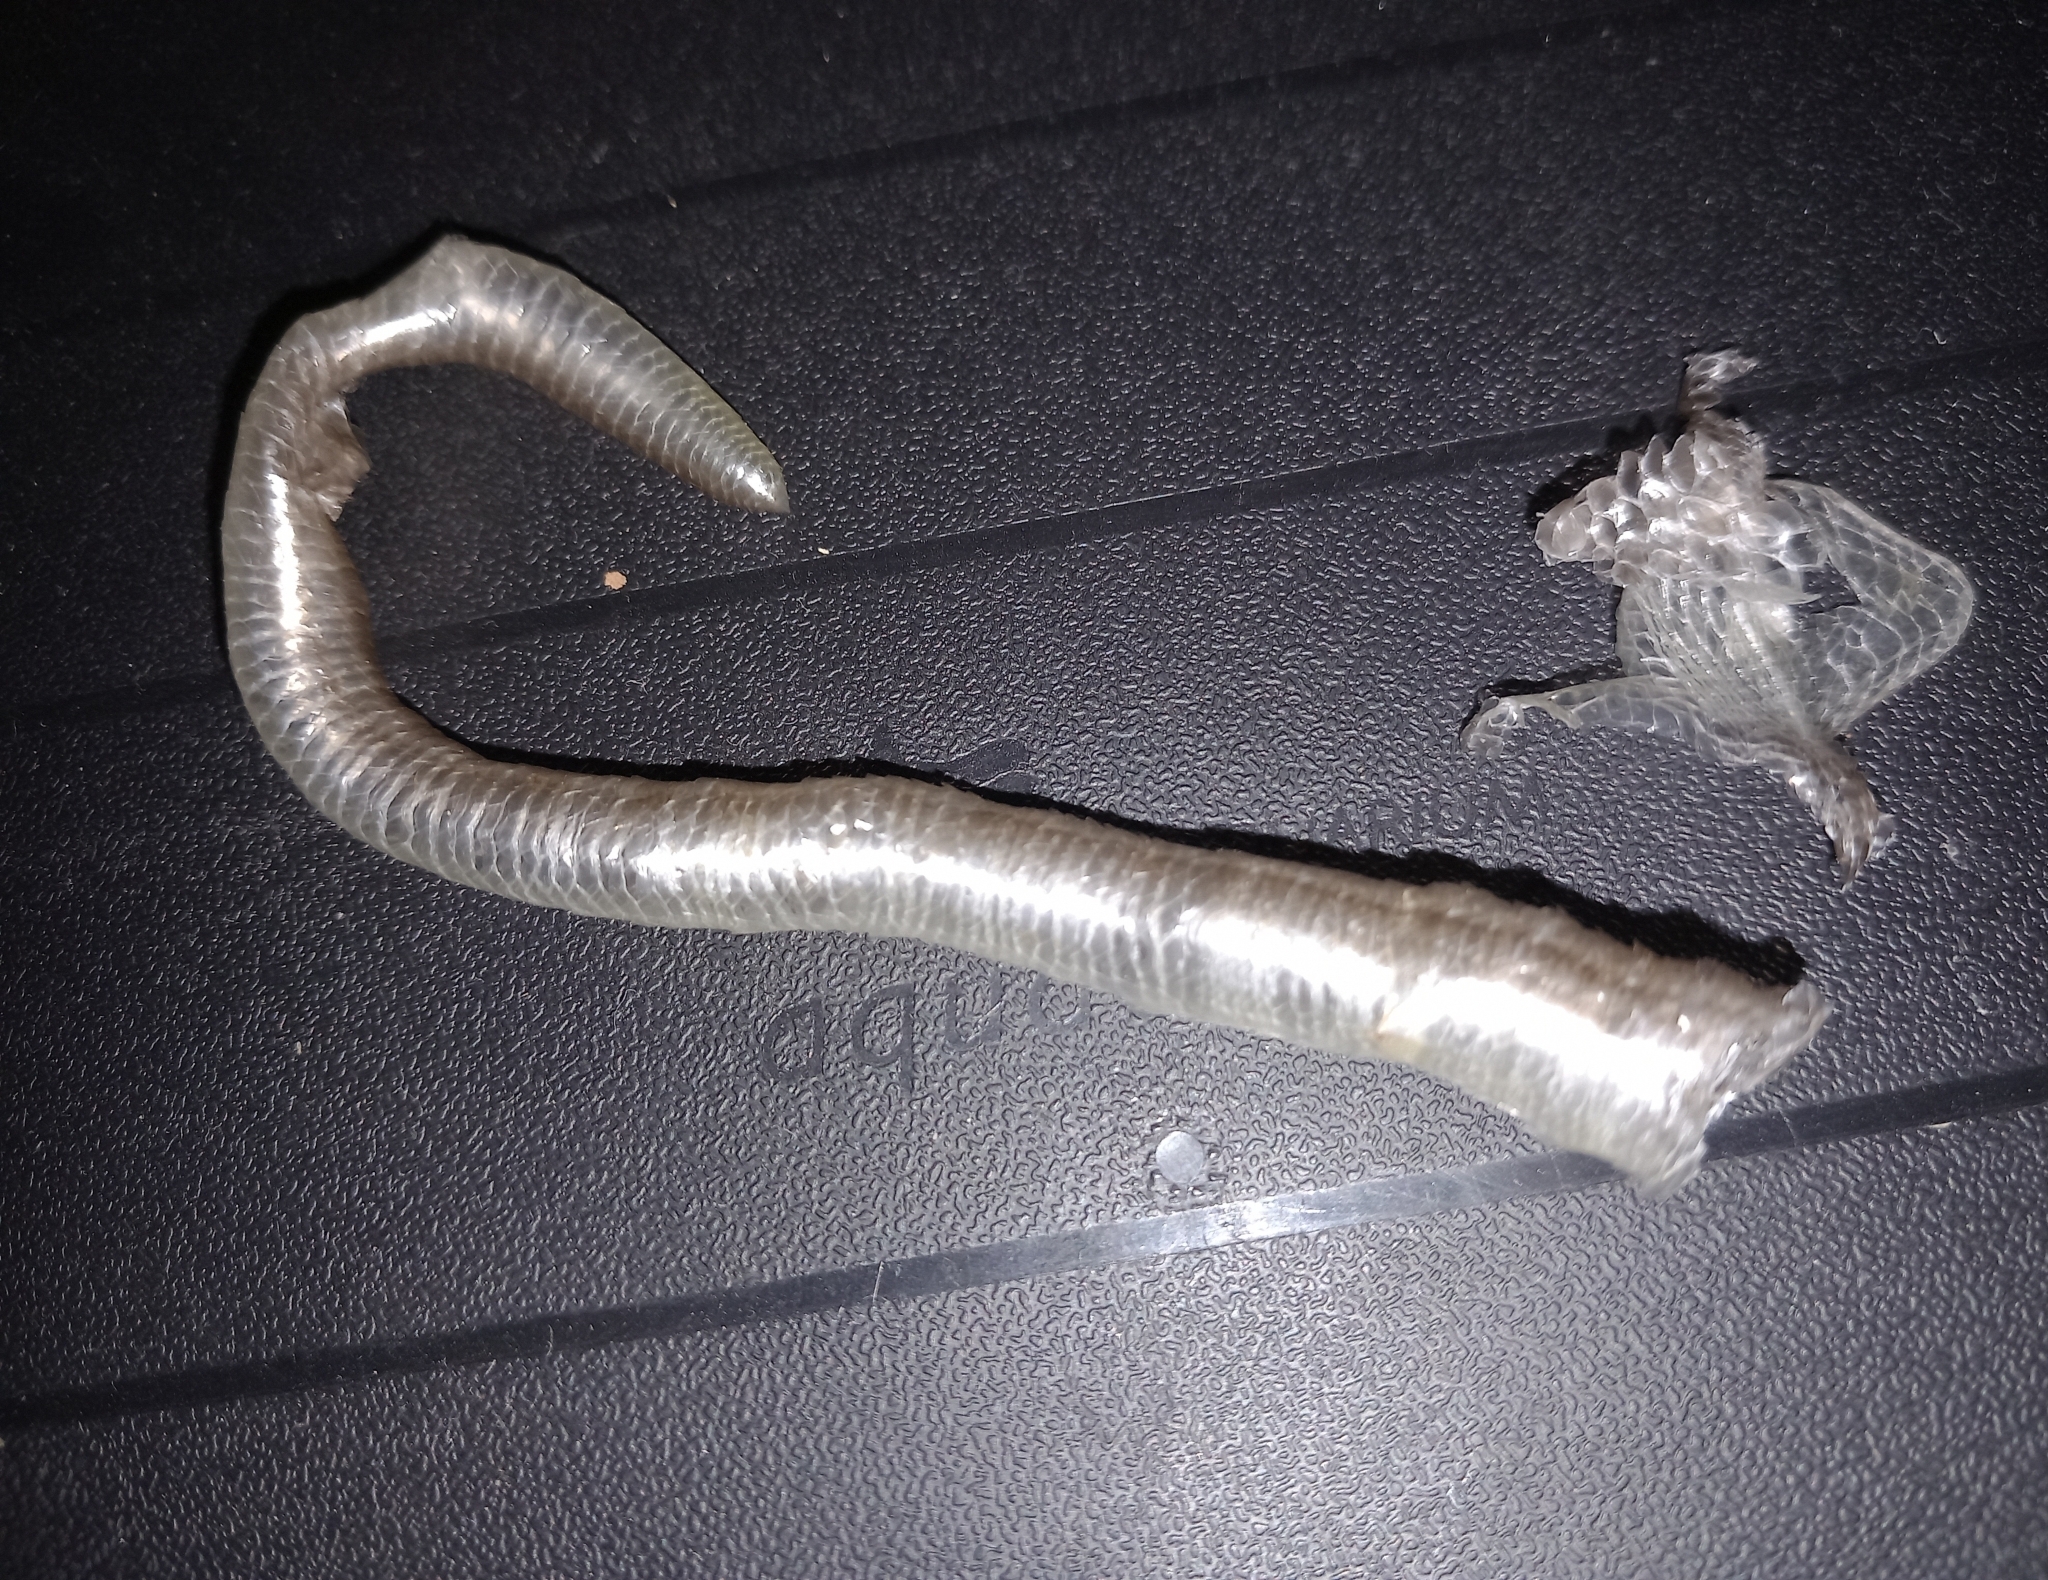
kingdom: Animalia
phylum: Chordata
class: Squamata
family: Anguidae
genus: Anguis
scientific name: Anguis fragilis
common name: Slow worm
